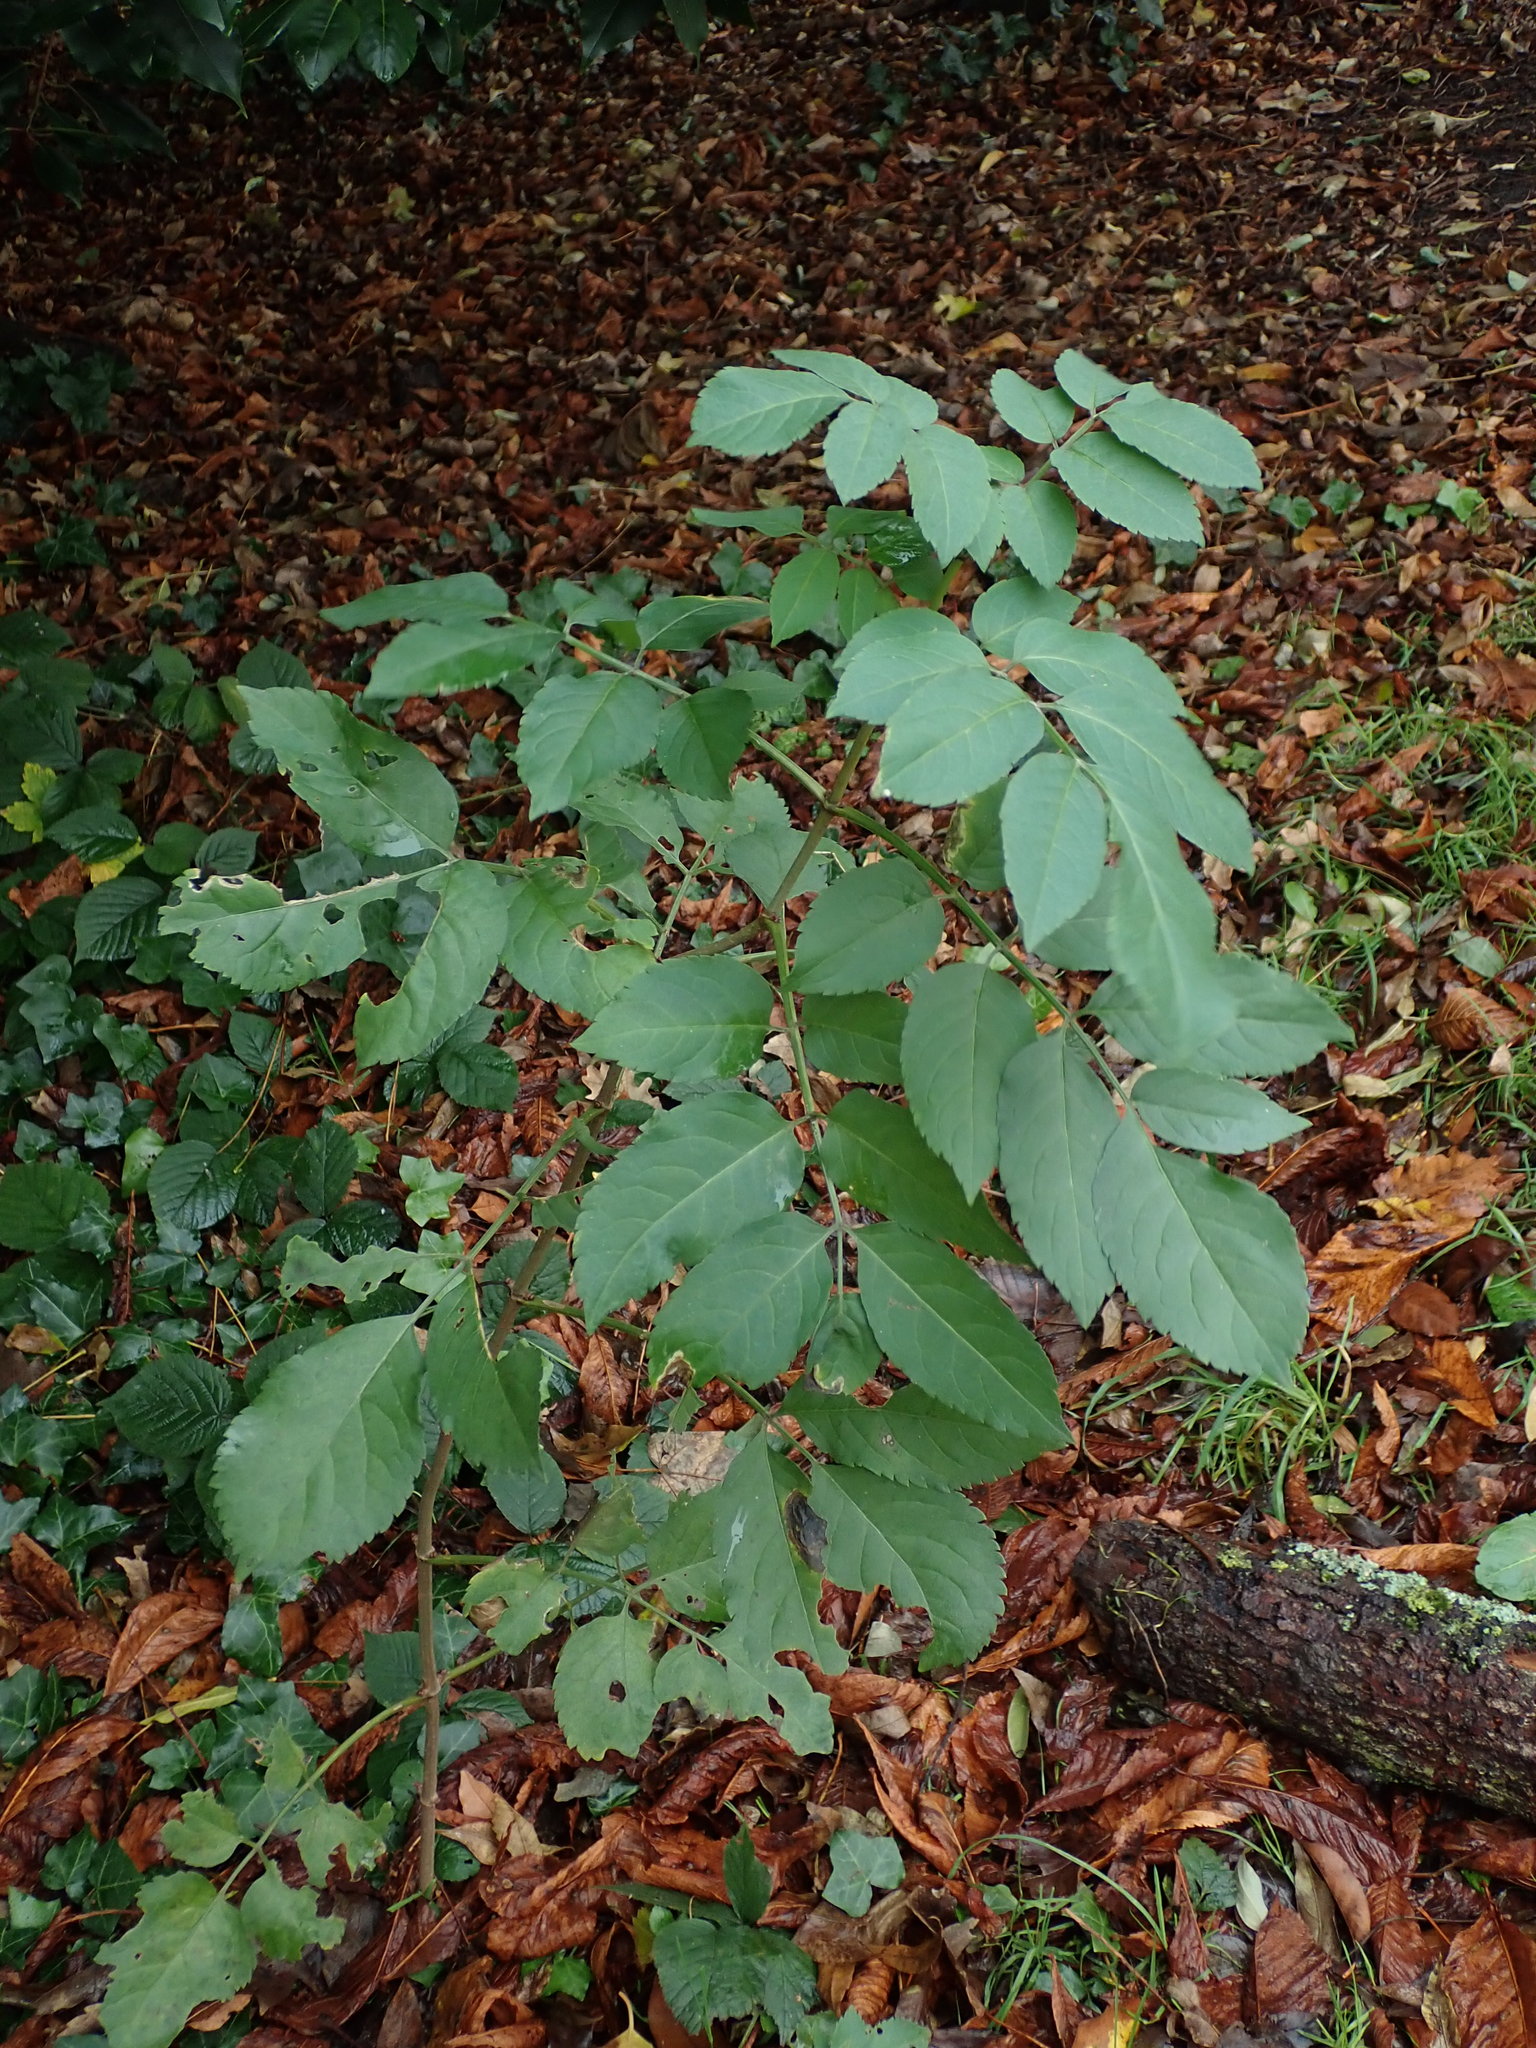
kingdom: Plantae
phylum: Tracheophyta
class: Magnoliopsida
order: Dipsacales
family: Viburnaceae
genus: Sambucus
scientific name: Sambucus nigra
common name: Elder
